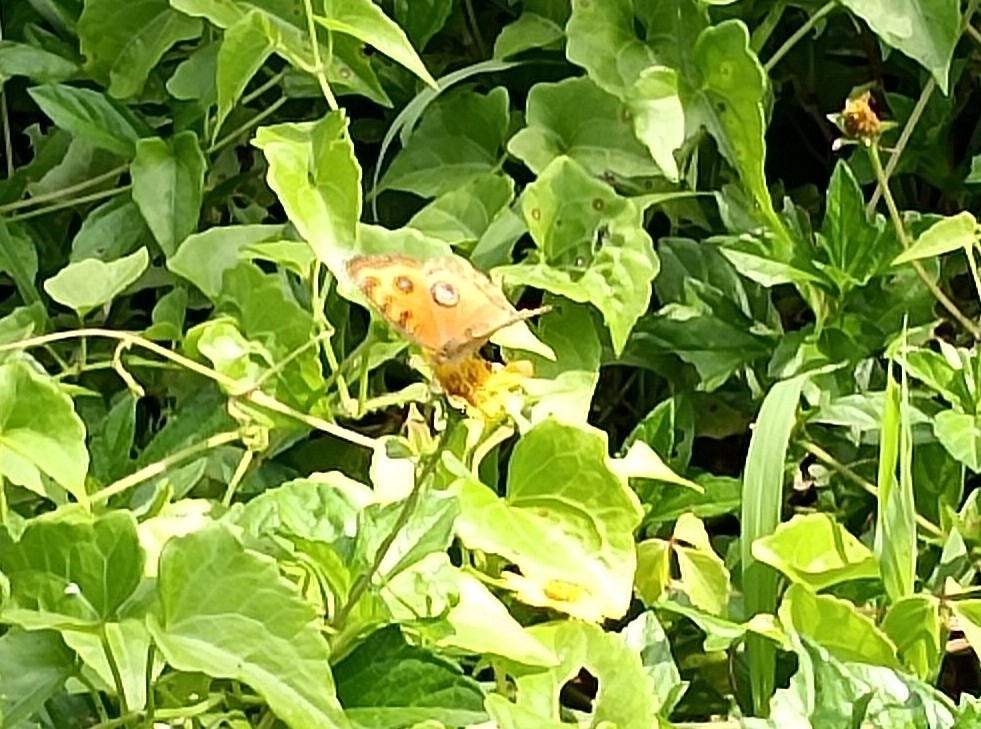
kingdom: Animalia
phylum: Arthropoda
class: Insecta
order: Lepidoptera
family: Nymphalidae
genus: Junonia
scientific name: Junonia almana
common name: Peacock pansy
